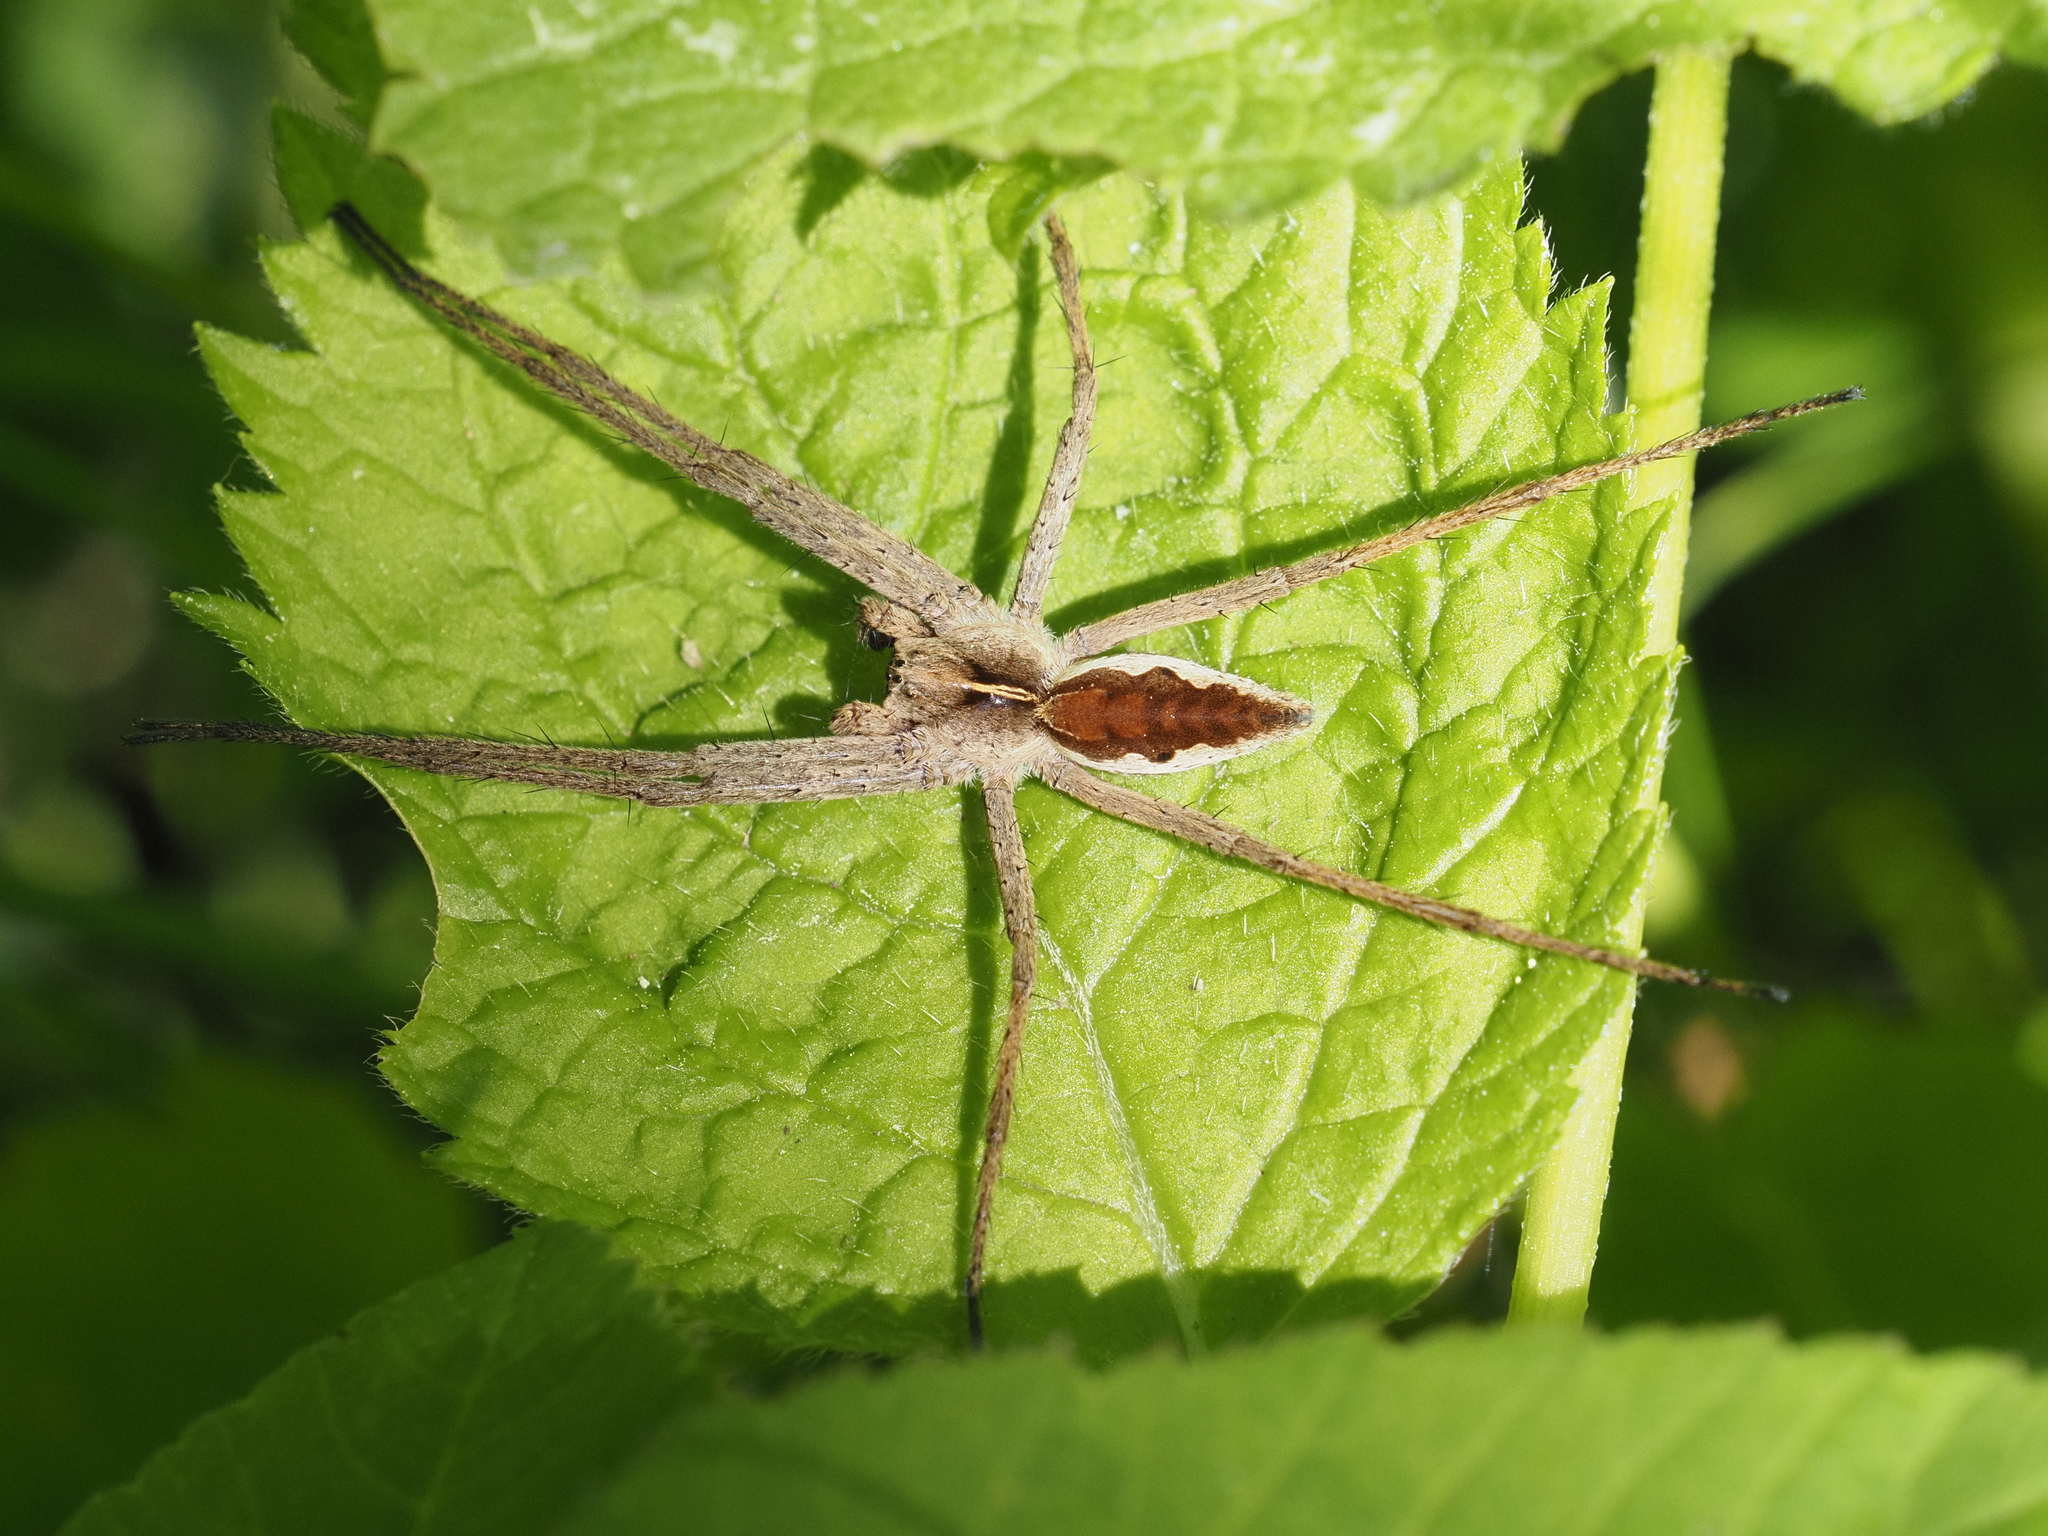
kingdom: Animalia
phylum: Arthropoda
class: Arachnida
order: Araneae
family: Pisauridae
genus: Pisaura
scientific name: Pisaura mirabilis
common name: Tent spider
